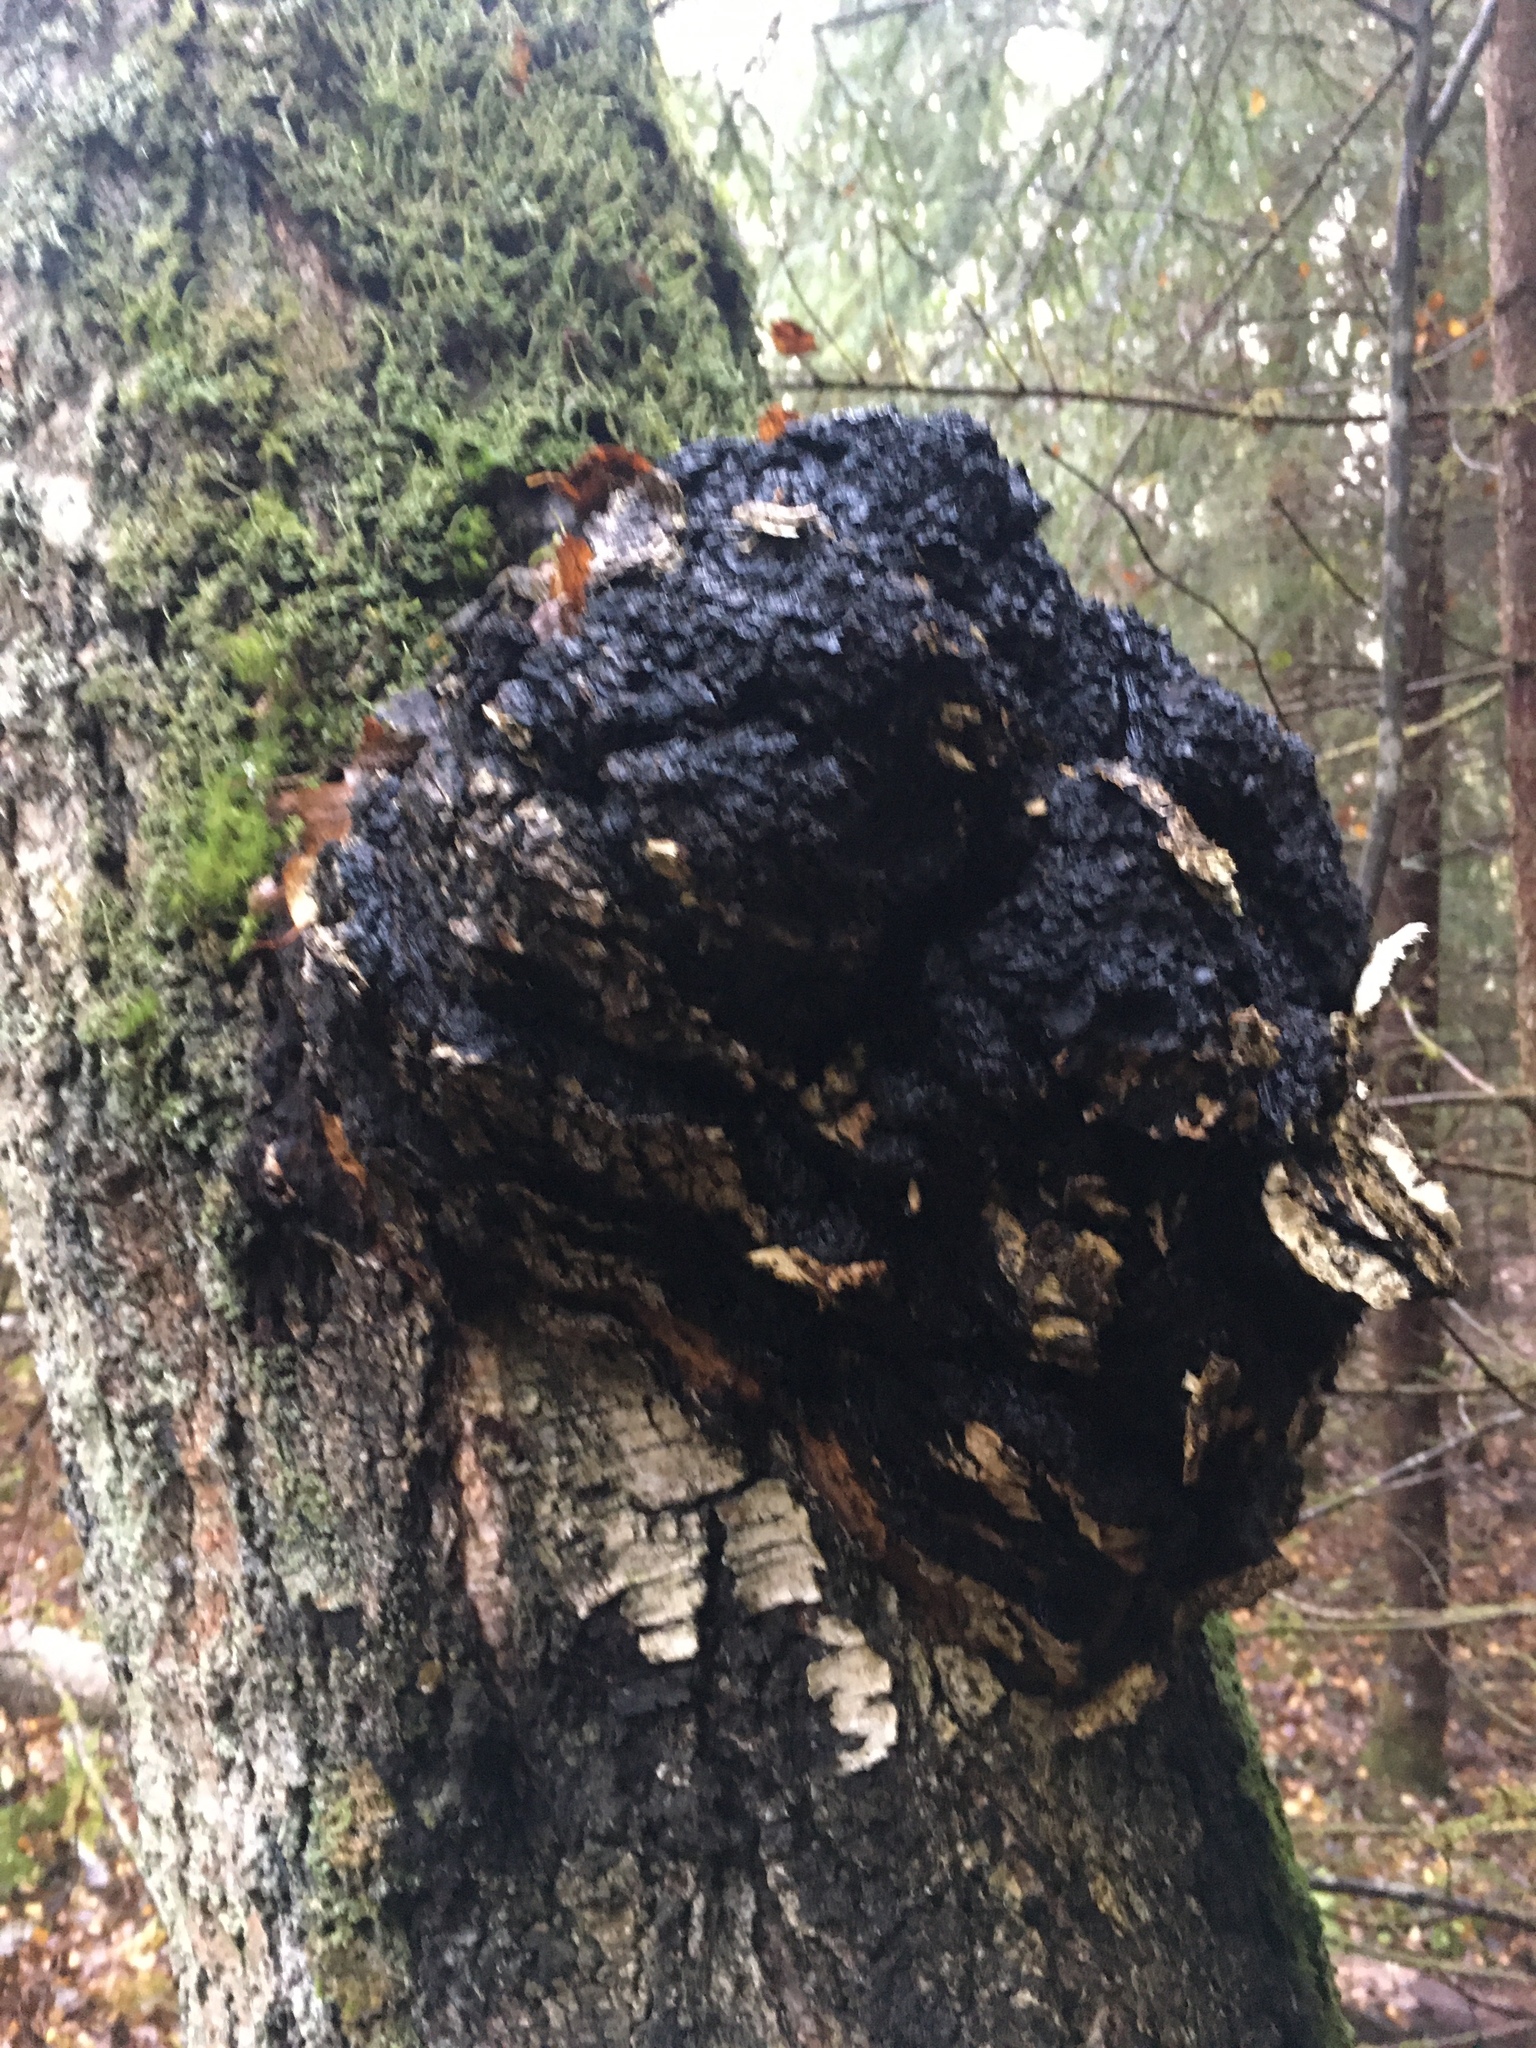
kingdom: Fungi
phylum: Basidiomycota
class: Agaricomycetes
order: Hymenochaetales
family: Hymenochaetaceae
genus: Inonotus
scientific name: Inonotus obliquus
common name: Chaga
